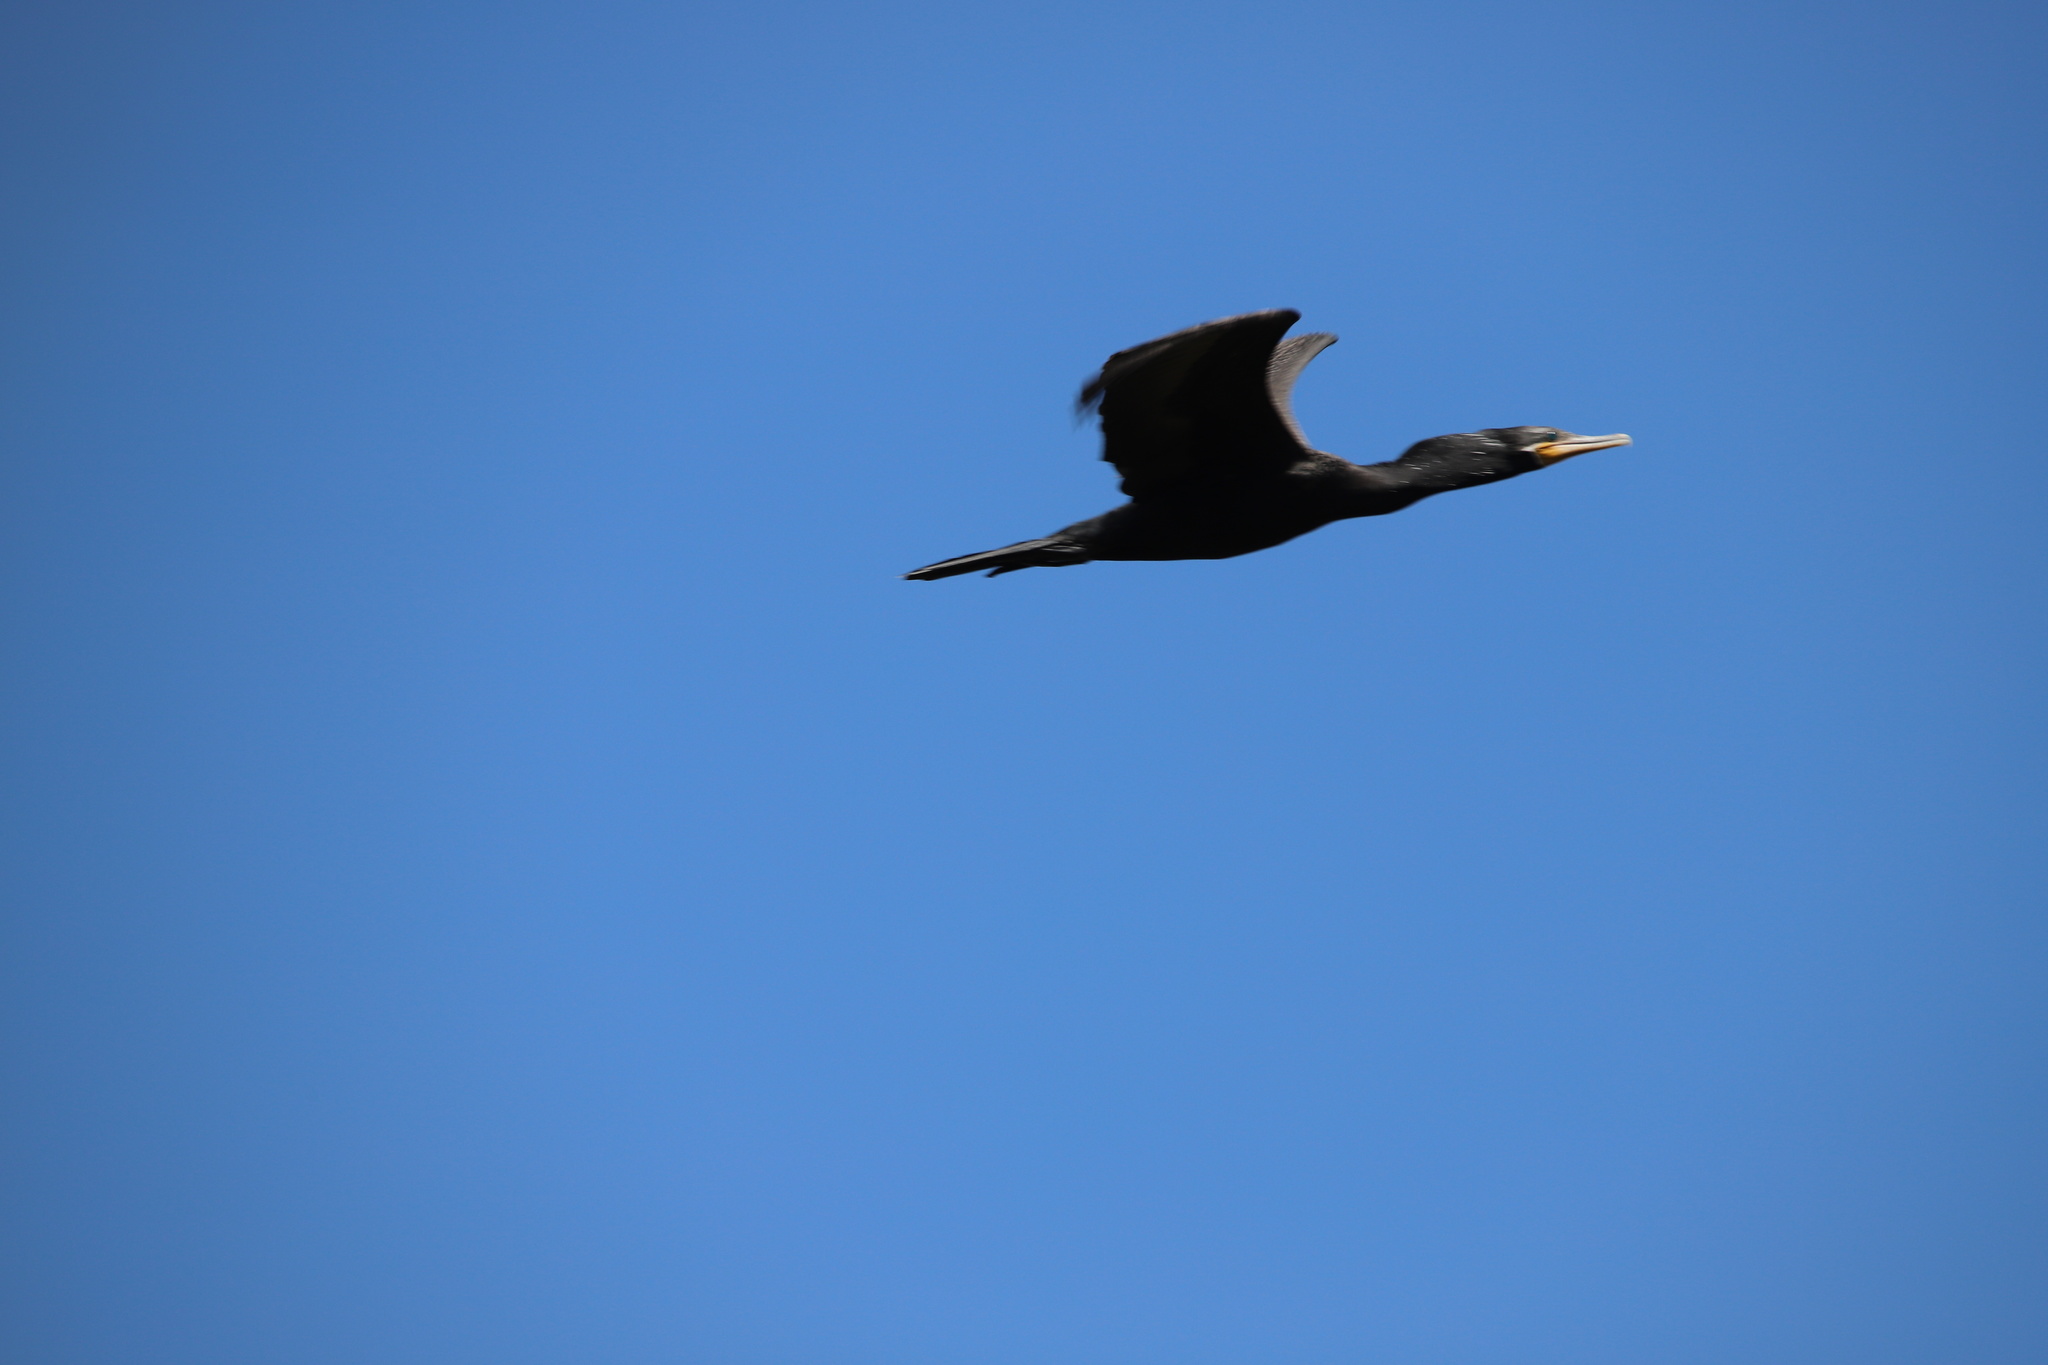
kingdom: Animalia
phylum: Chordata
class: Aves
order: Suliformes
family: Phalacrocoracidae
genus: Phalacrocorax
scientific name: Phalacrocorax brasilianus
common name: Neotropic cormorant
